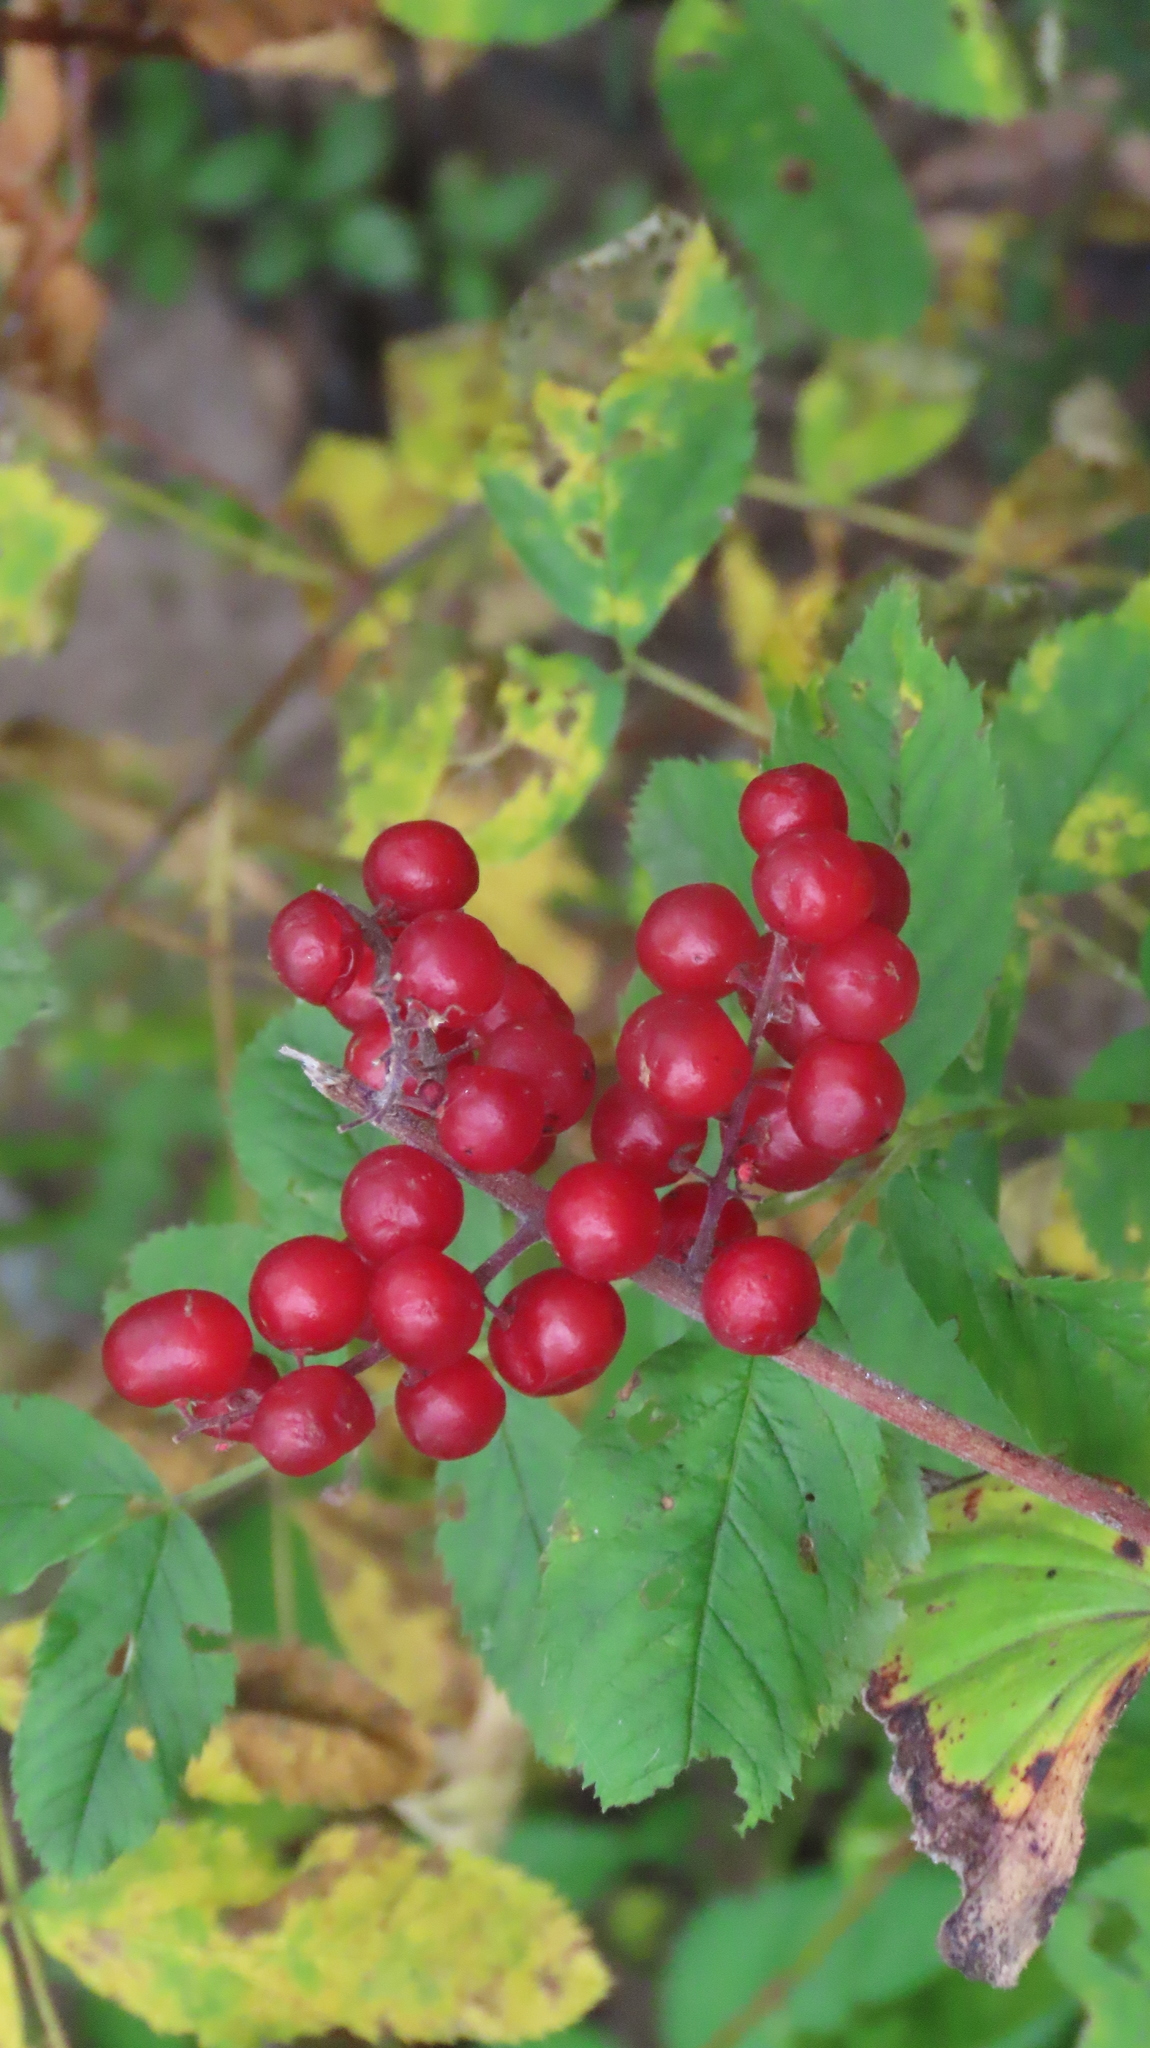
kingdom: Plantae
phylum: Tracheophyta
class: Liliopsida
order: Asparagales
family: Asparagaceae
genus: Maianthemum
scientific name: Maianthemum racemosum
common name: False spikenard
